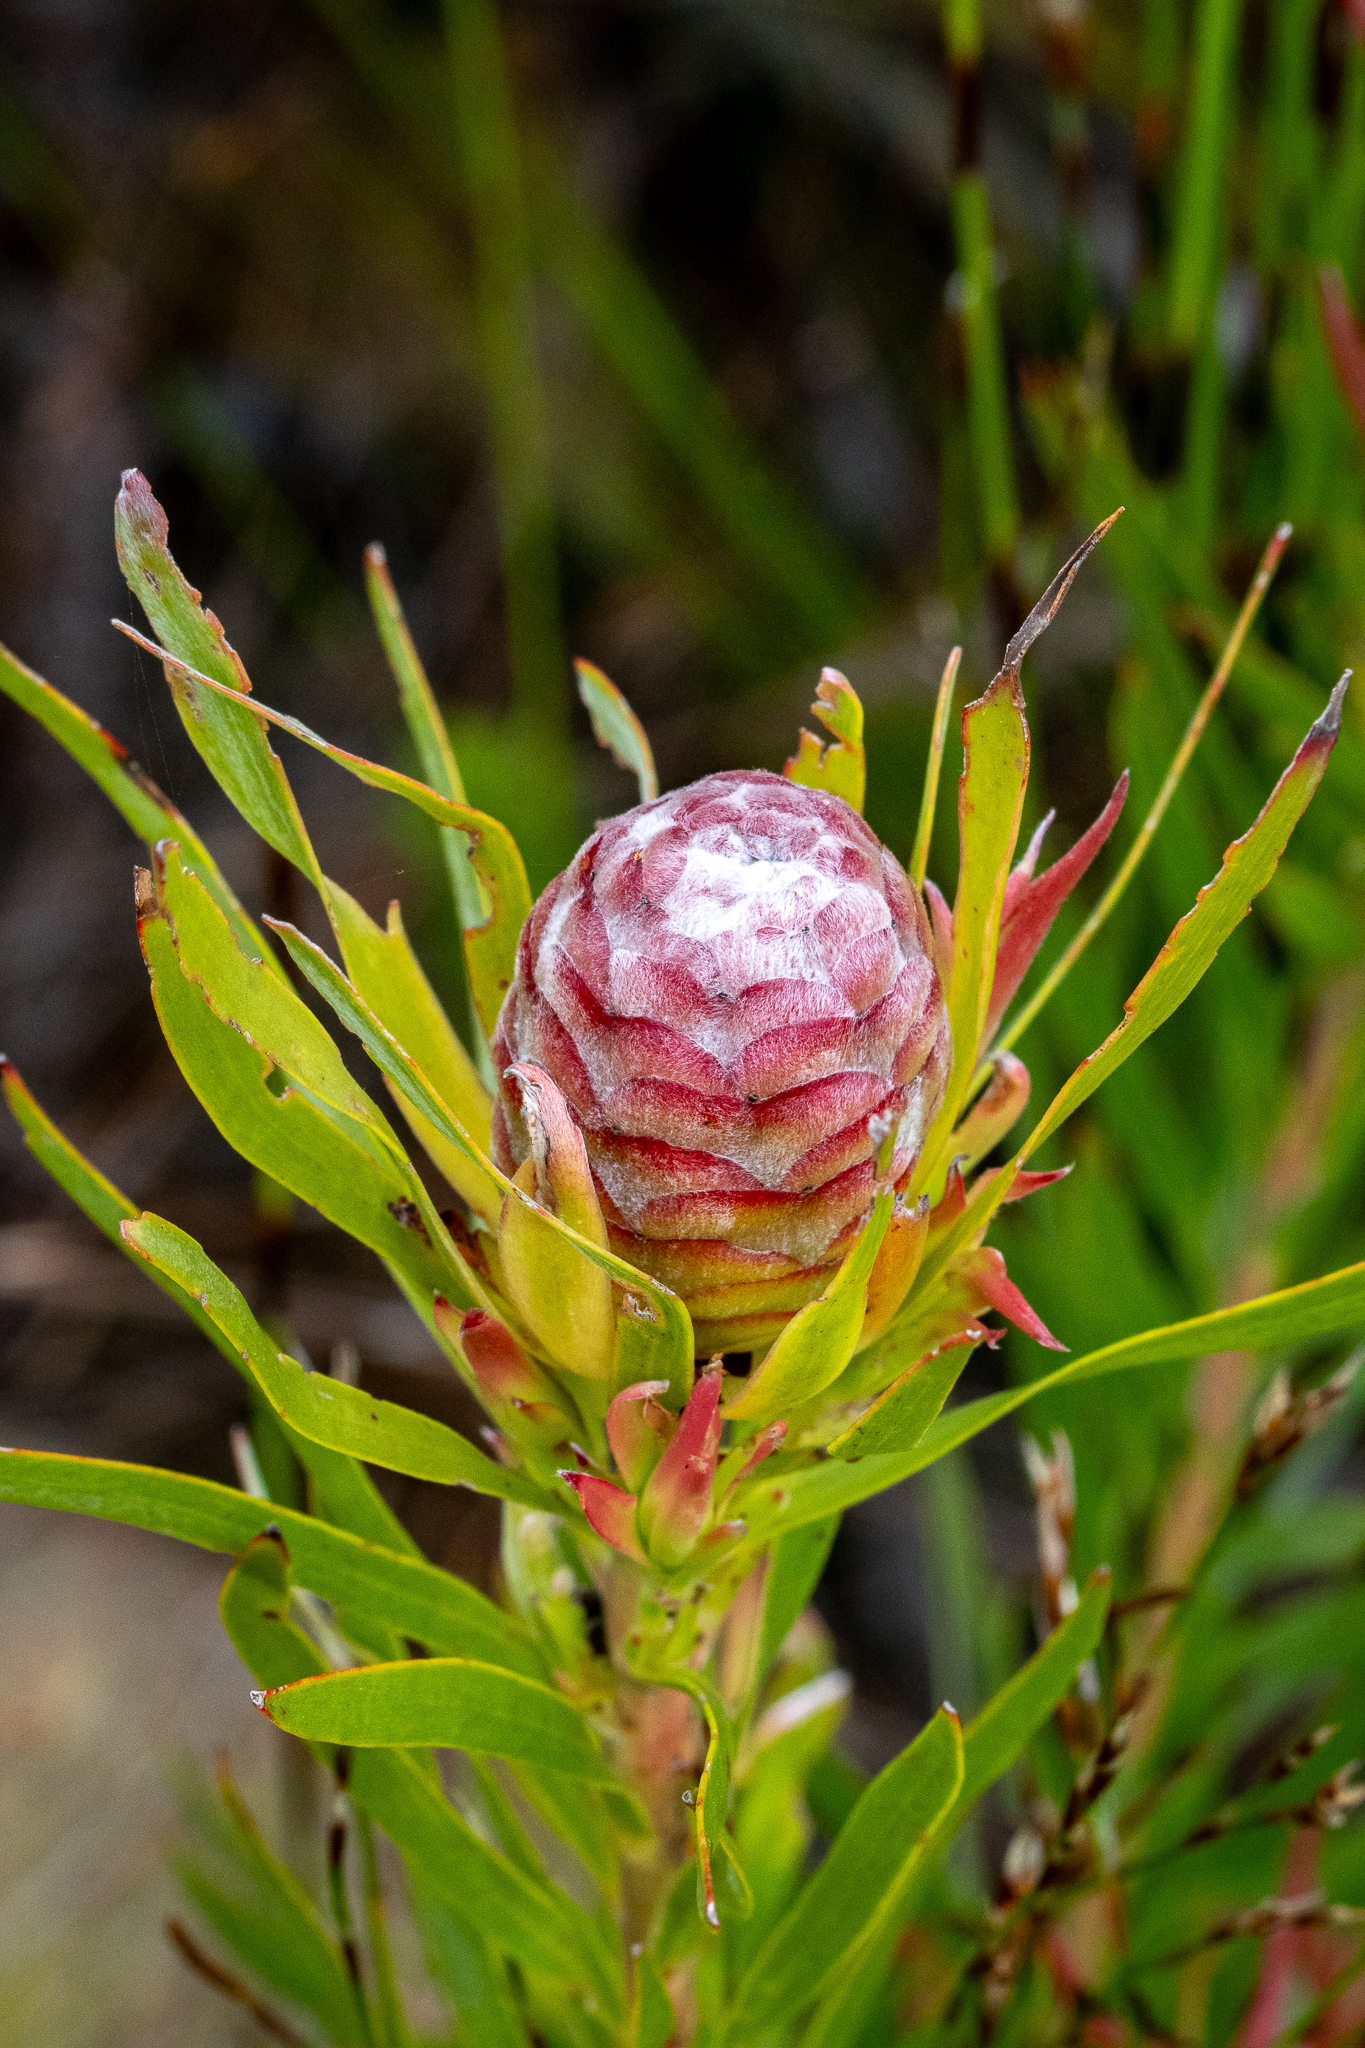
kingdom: Plantae
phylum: Tracheophyta
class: Magnoliopsida
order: Proteales
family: Proteaceae
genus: Leucadendron
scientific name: Leucadendron xanthoconus
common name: Sickle-leaf conebush
